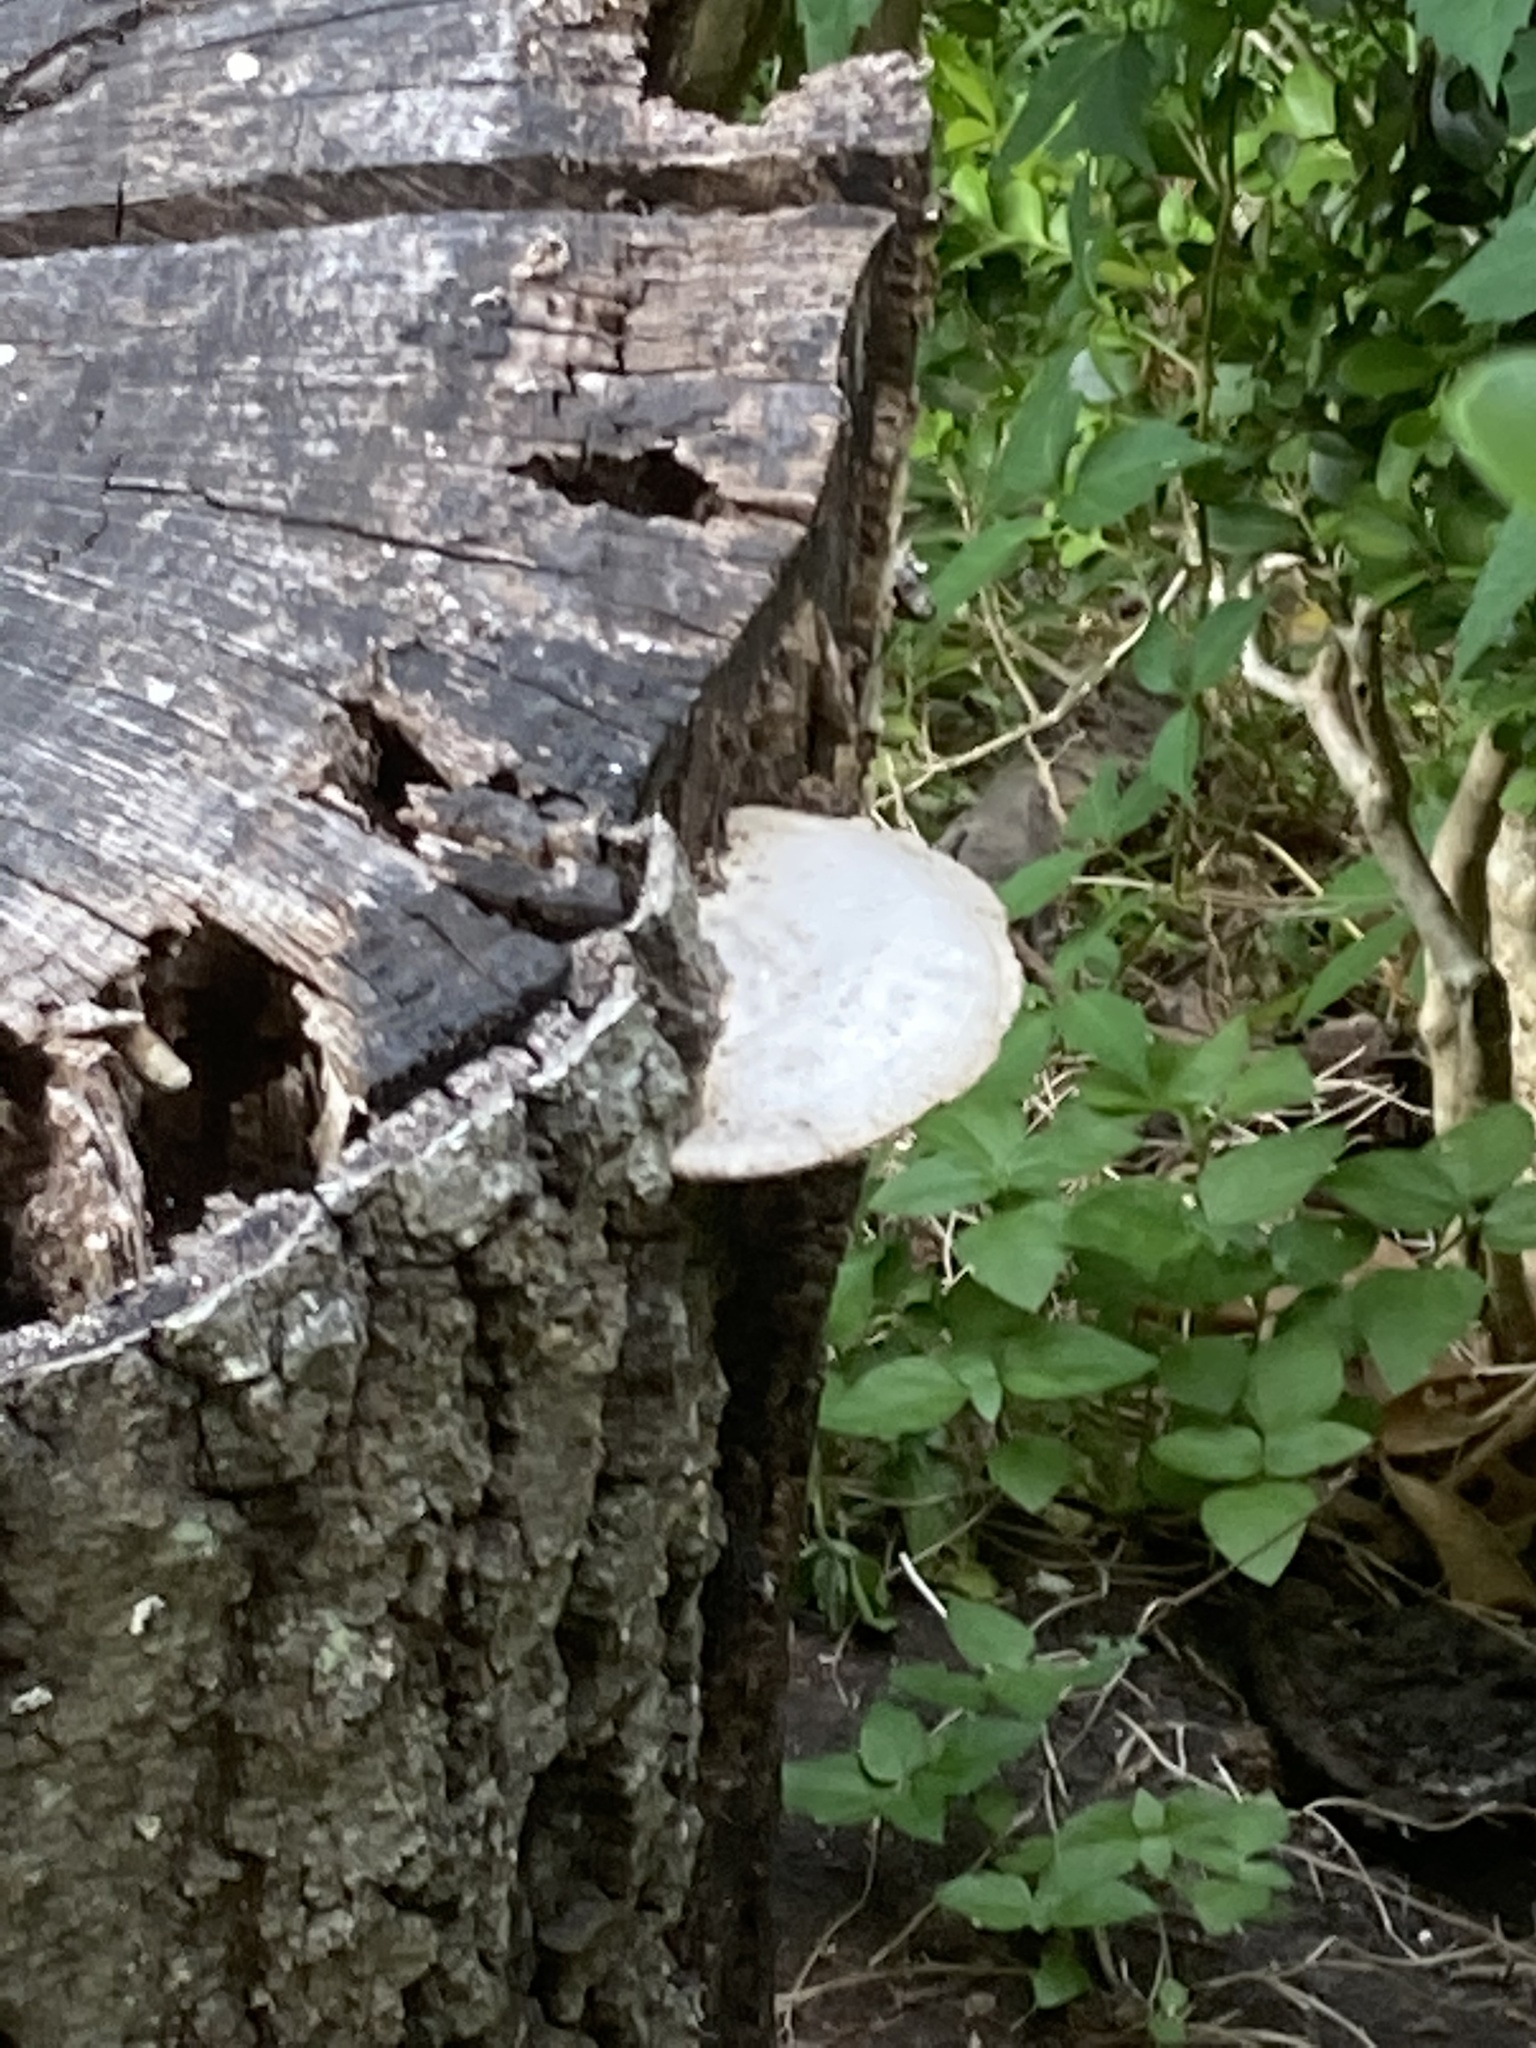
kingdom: Fungi
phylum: Basidiomycota
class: Agaricomycetes
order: Polyporales
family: Polyporaceae
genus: Trametes
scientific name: Trametes lactinea
